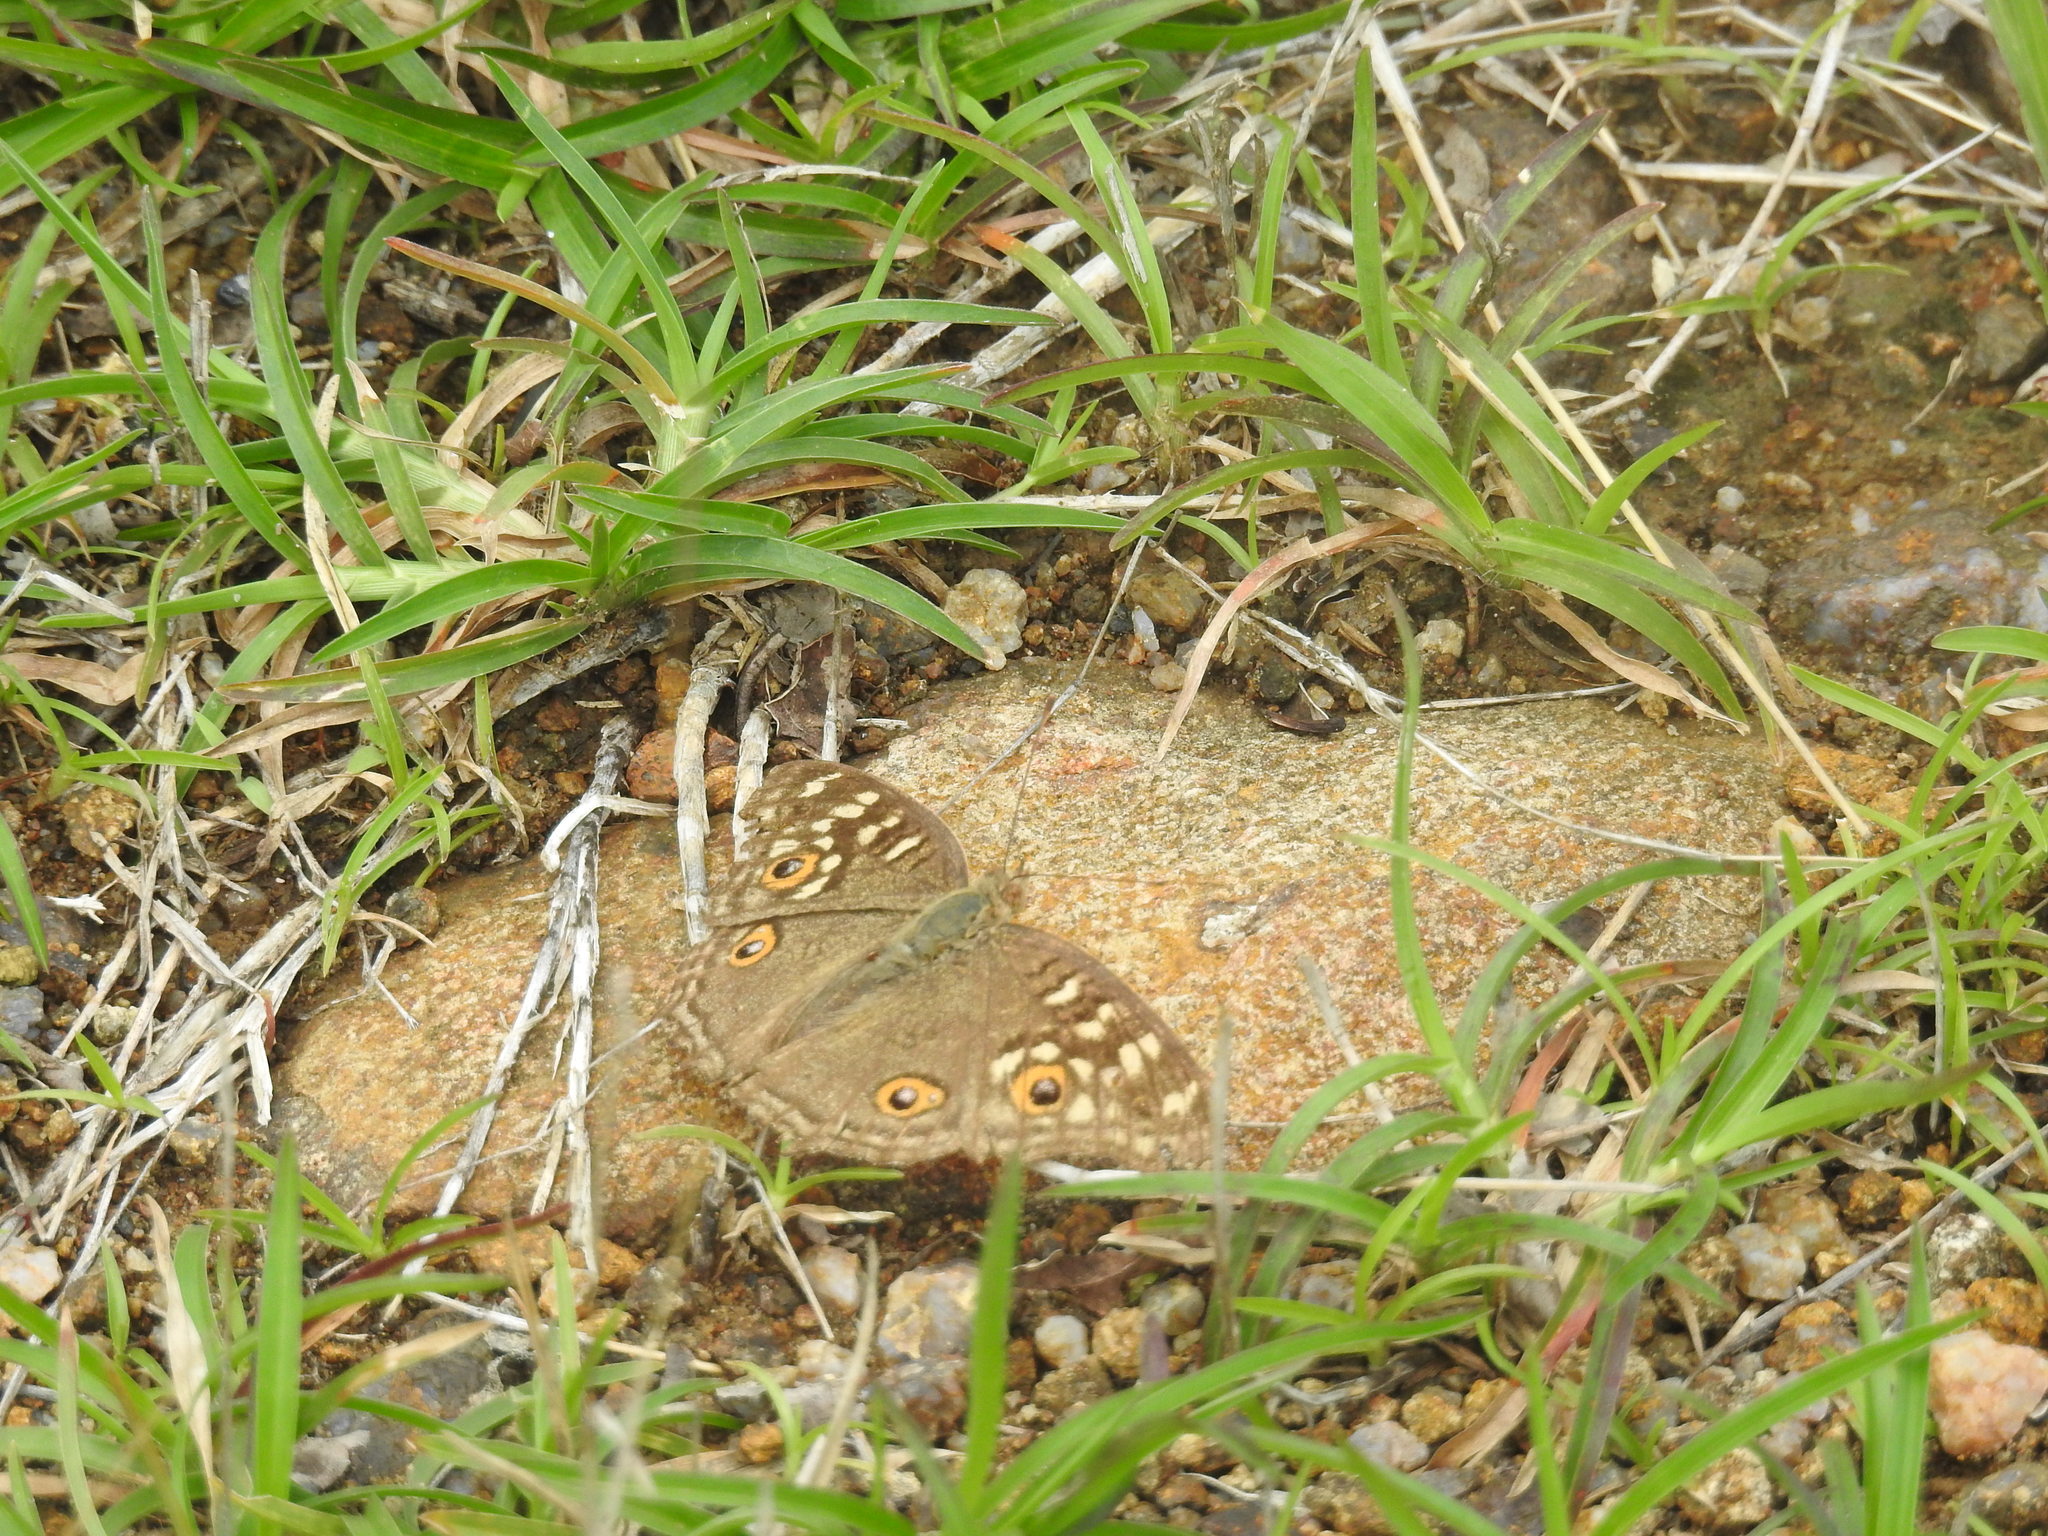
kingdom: Animalia
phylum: Arthropoda
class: Insecta
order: Lepidoptera
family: Nymphalidae
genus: Junonia
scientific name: Junonia lemonias
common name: Lemon pansy
